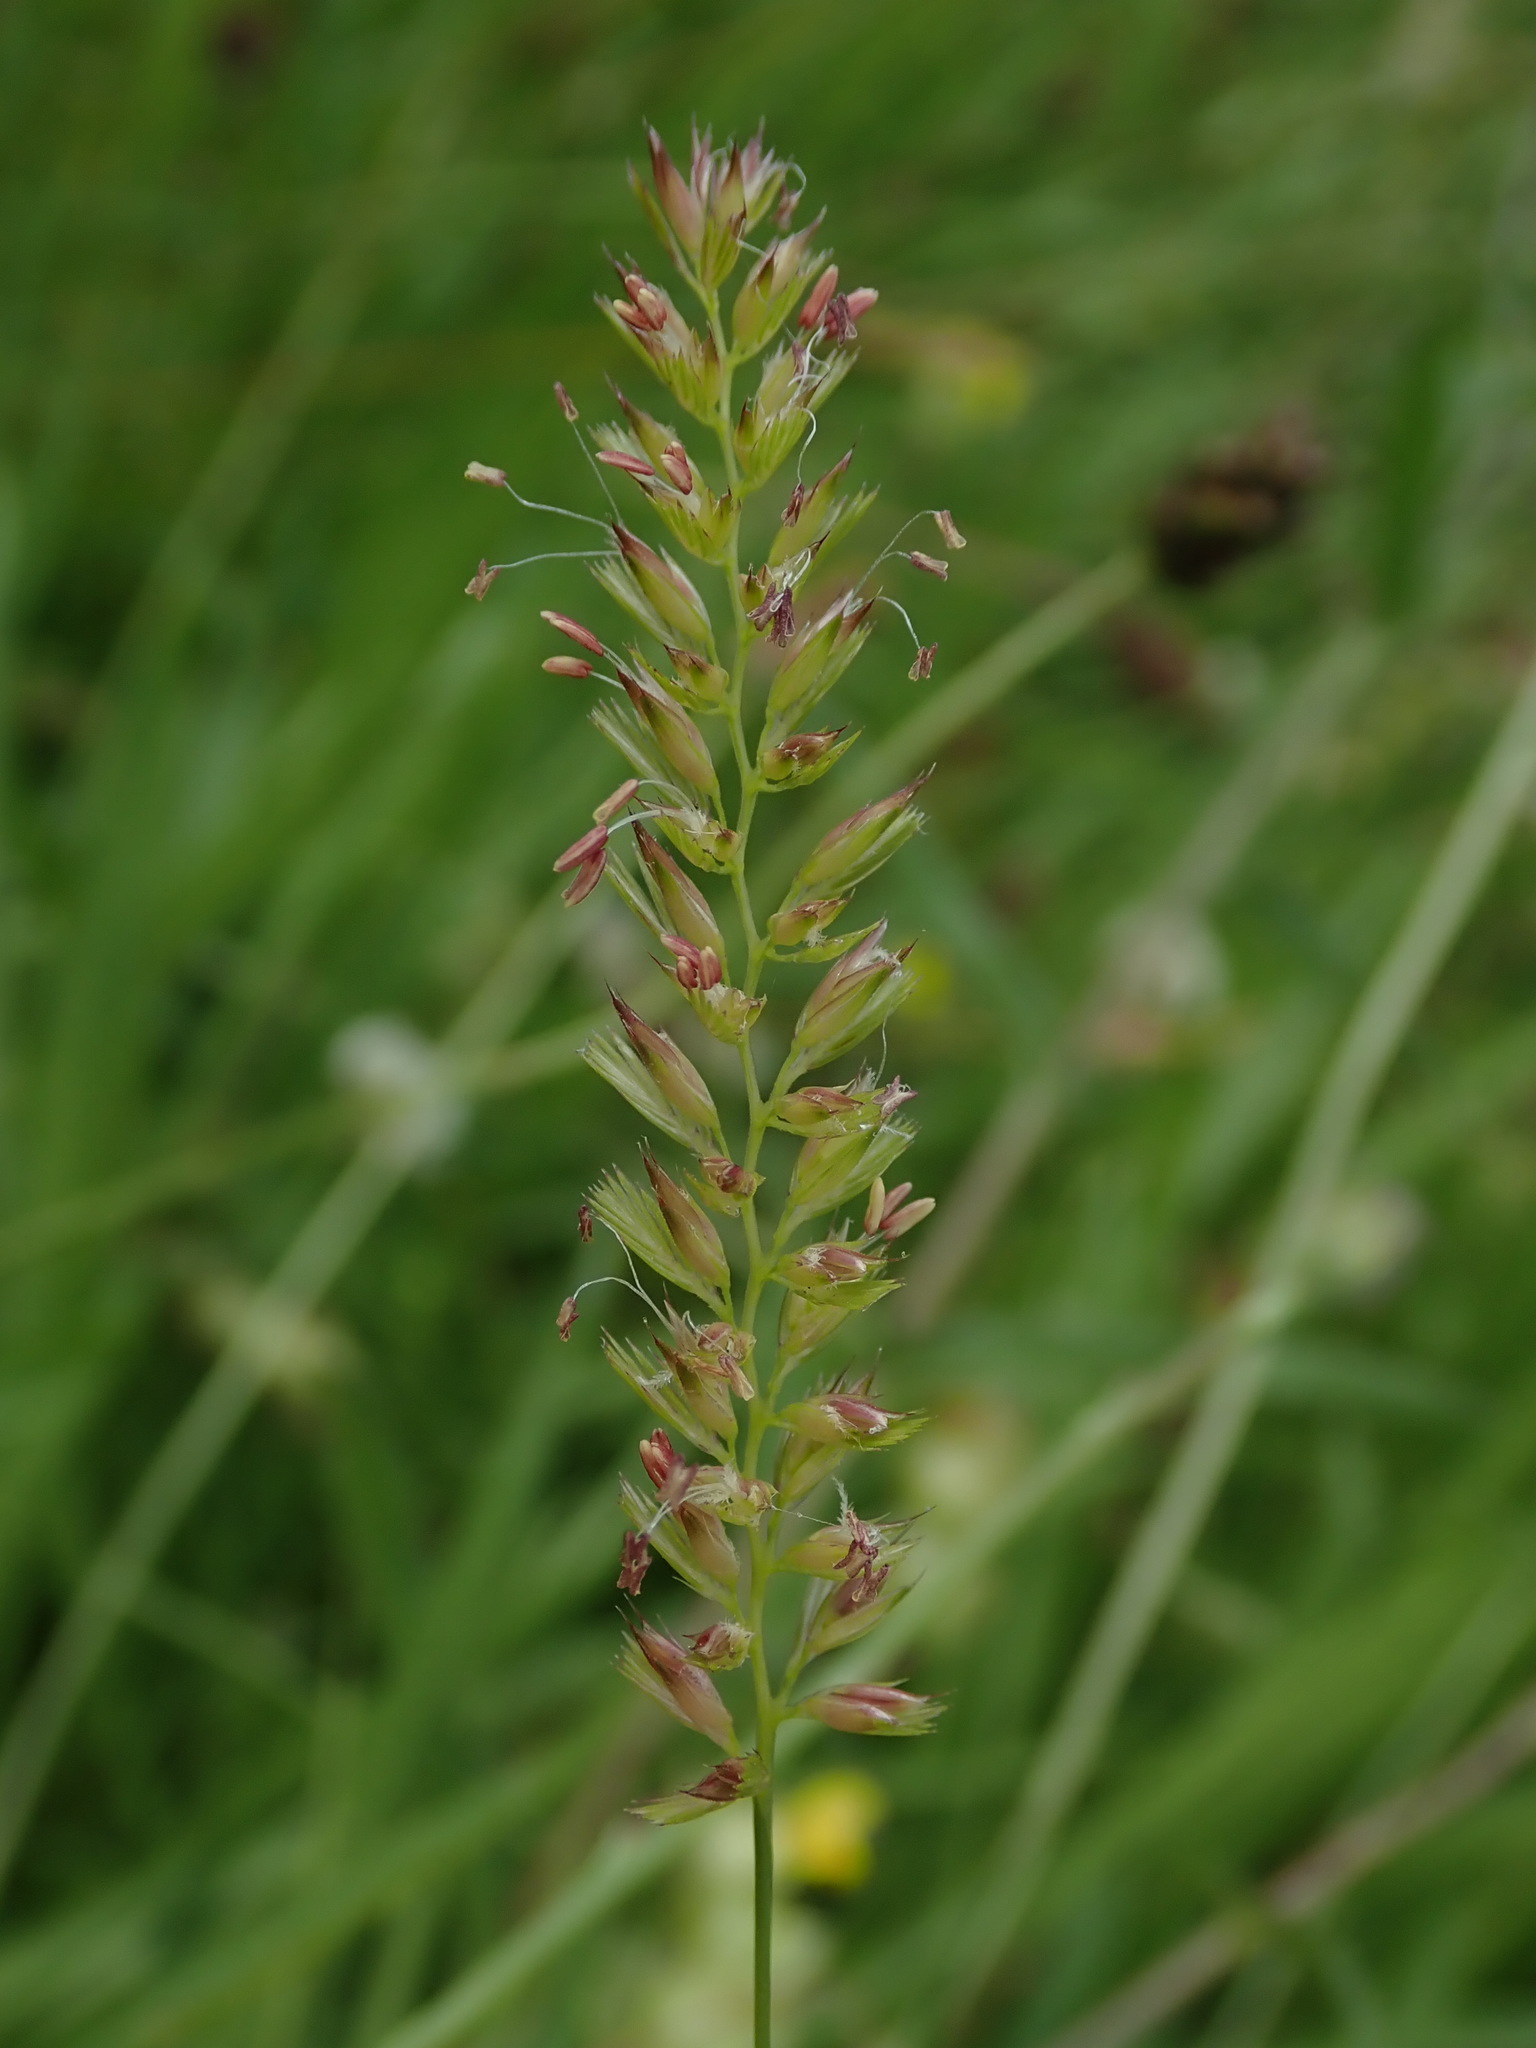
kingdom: Plantae
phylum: Tracheophyta
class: Liliopsida
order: Poales
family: Poaceae
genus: Cynosurus
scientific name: Cynosurus cristatus
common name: Crested dog's-tail
